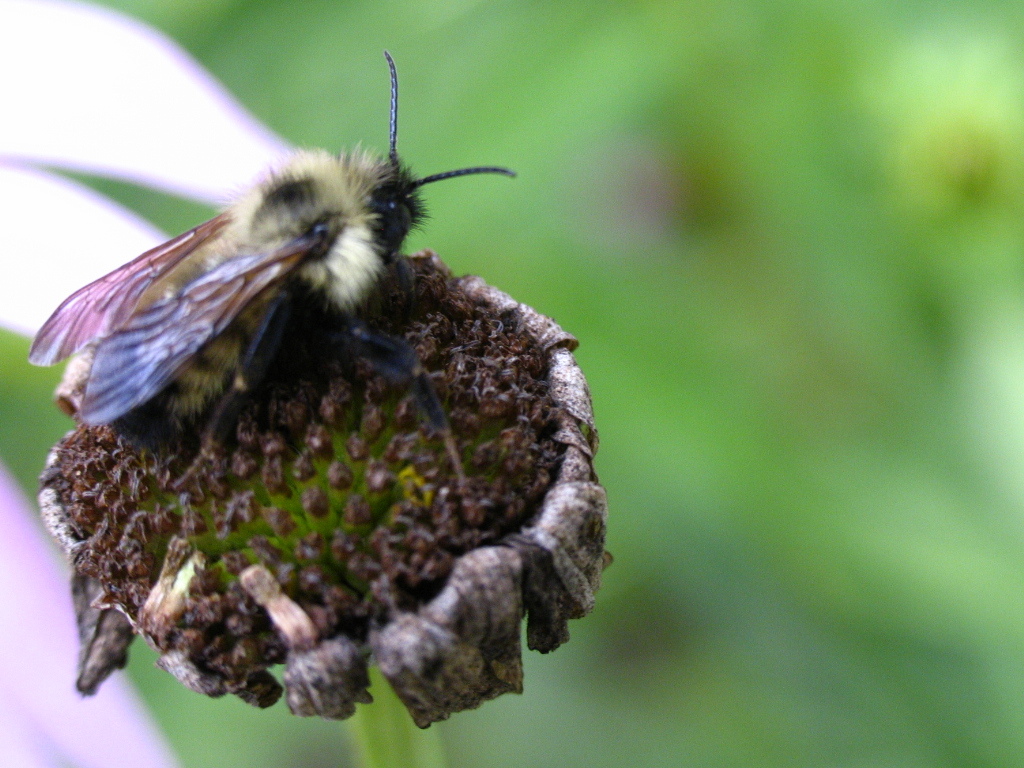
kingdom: Animalia
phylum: Arthropoda
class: Insecta
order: Hymenoptera
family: Apidae
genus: Bombus
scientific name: Bombus citrinus
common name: Lemon cuckoo bumble bee
